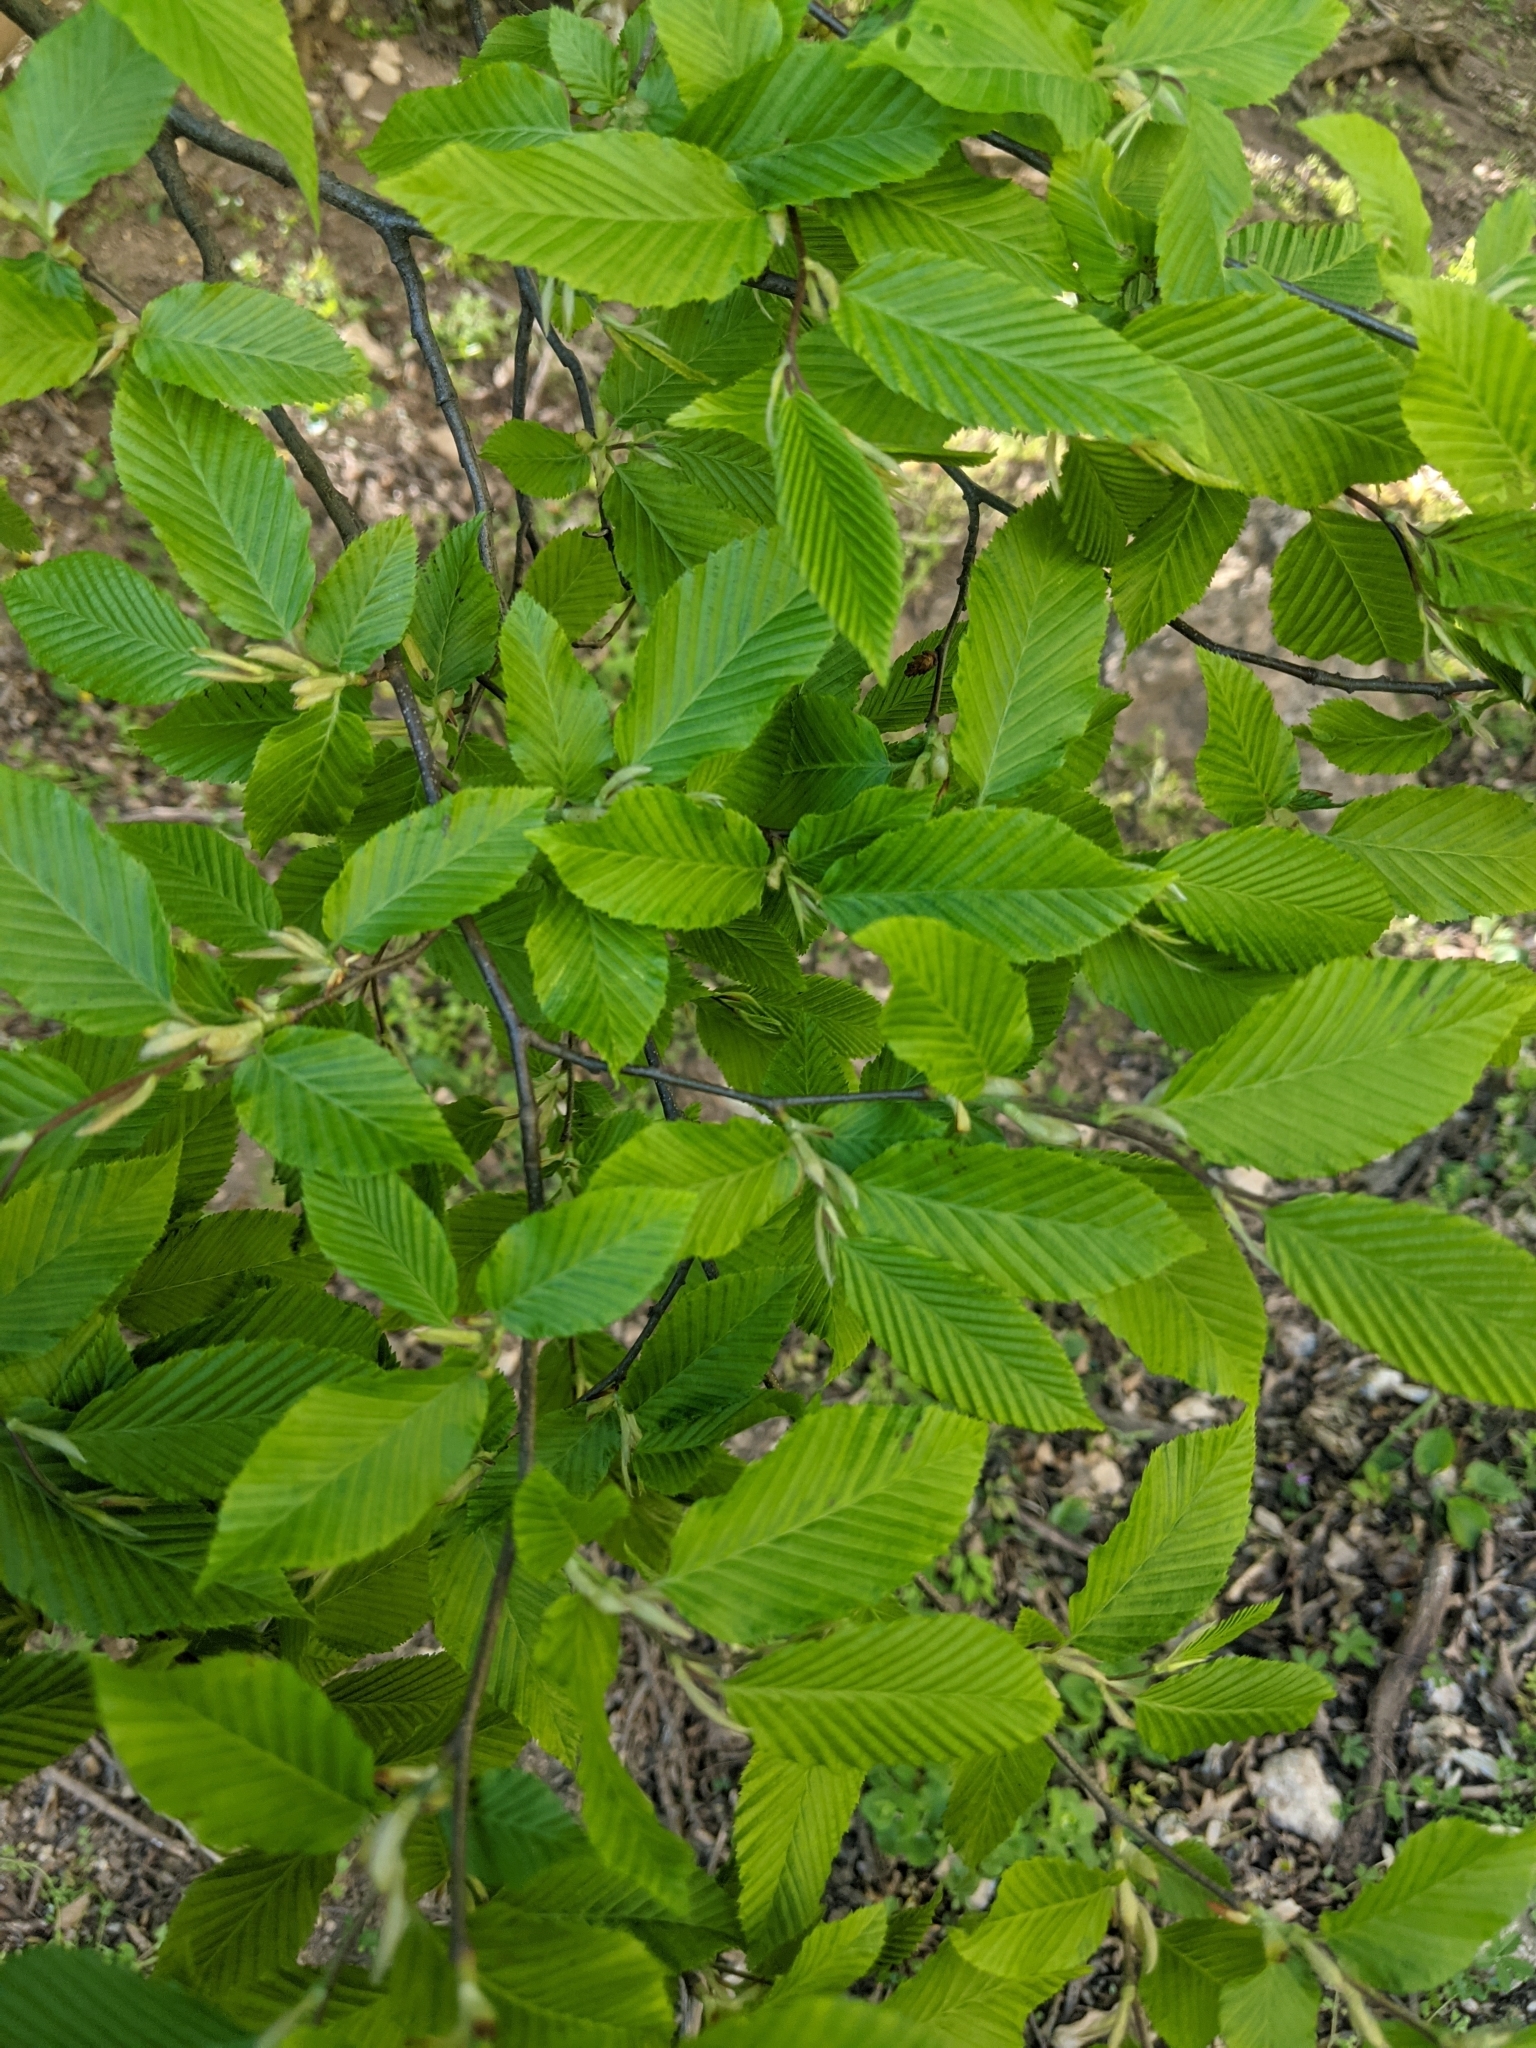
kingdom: Plantae
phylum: Tracheophyta
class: Magnoliopsida
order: Fagales
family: Betulaceae
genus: Carpinus
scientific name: Carpinus betulus
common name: Hornbeam
